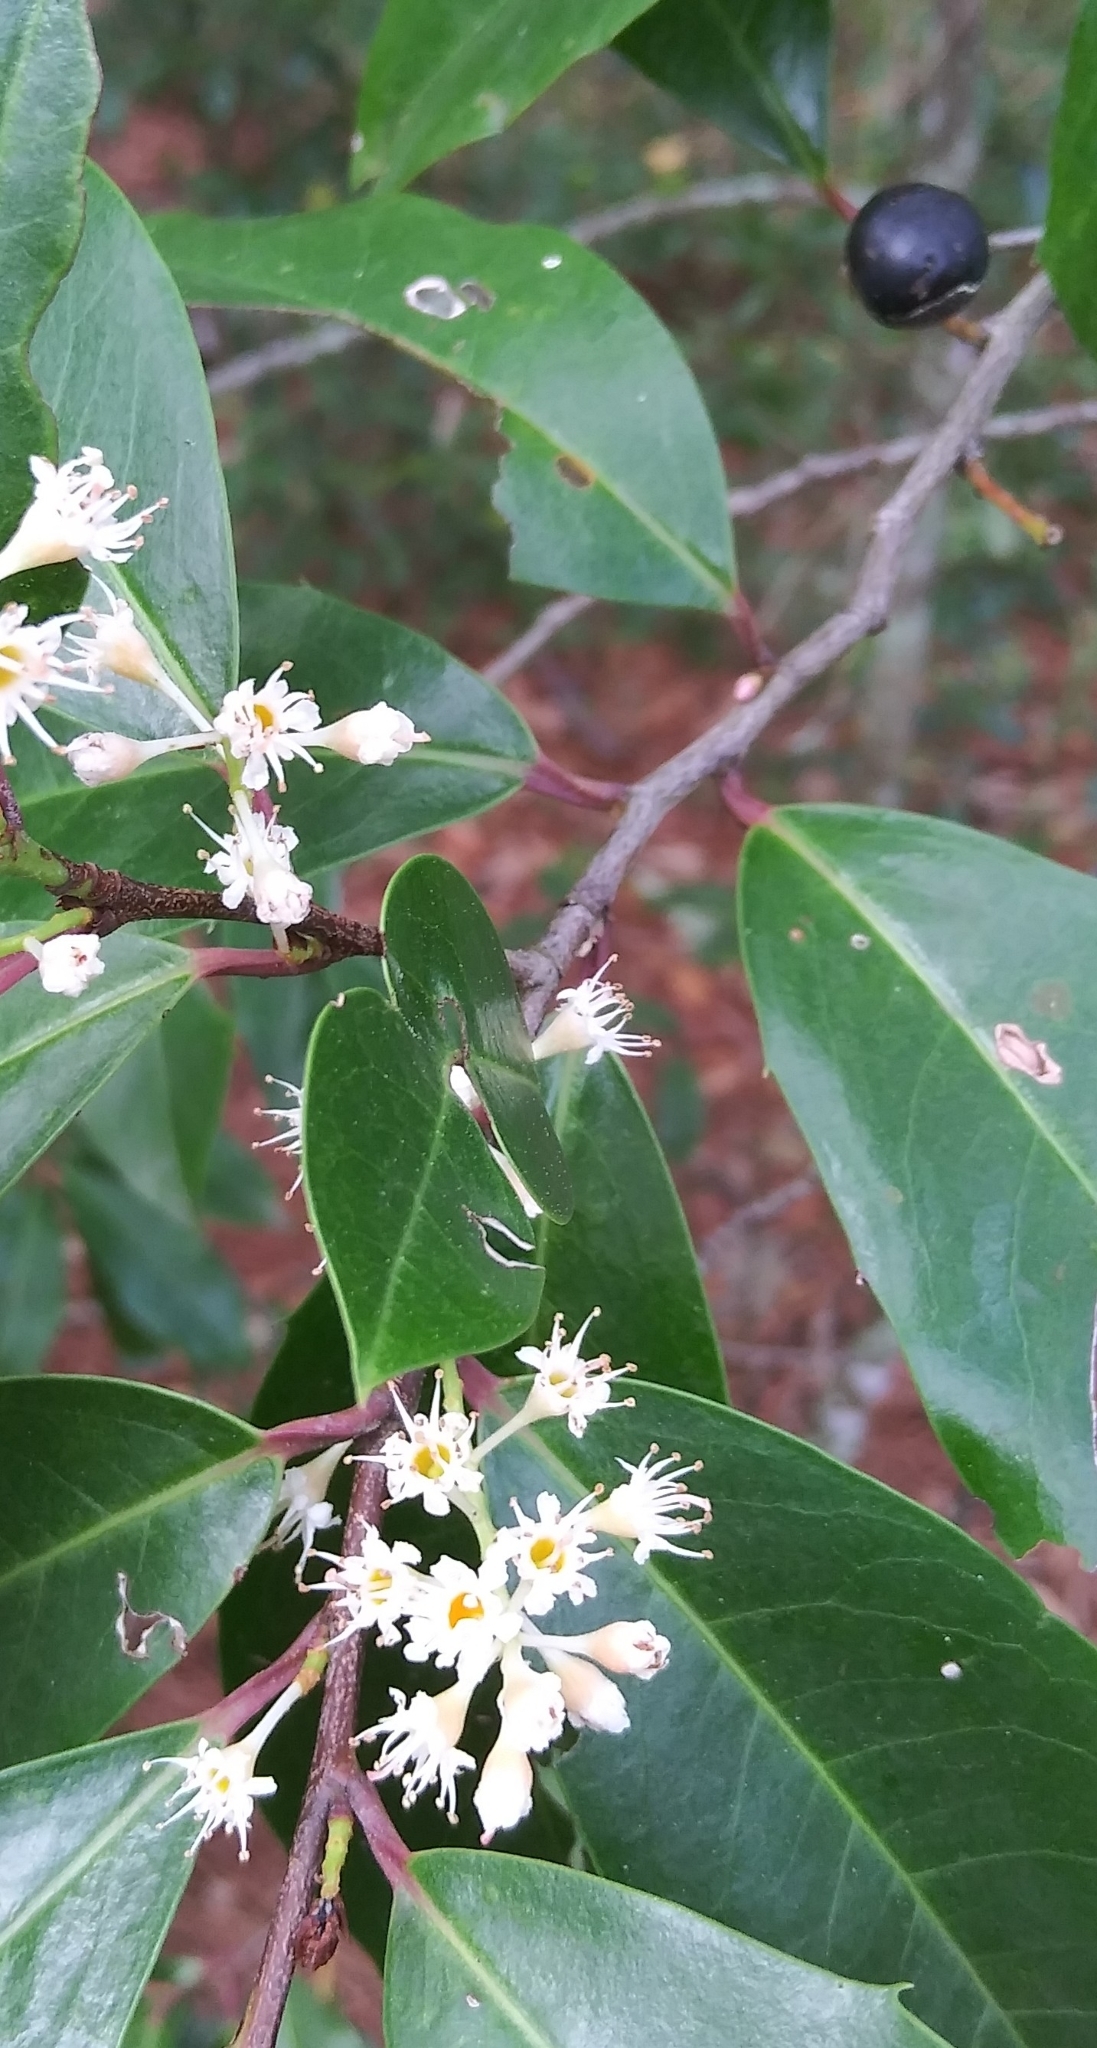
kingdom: Plantae
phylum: Tracheophyta
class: Magnoliopsida
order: Rosales
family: Rosaceae
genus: Prunus
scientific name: Prunus caroliniana
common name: Carolina laurel cherry
